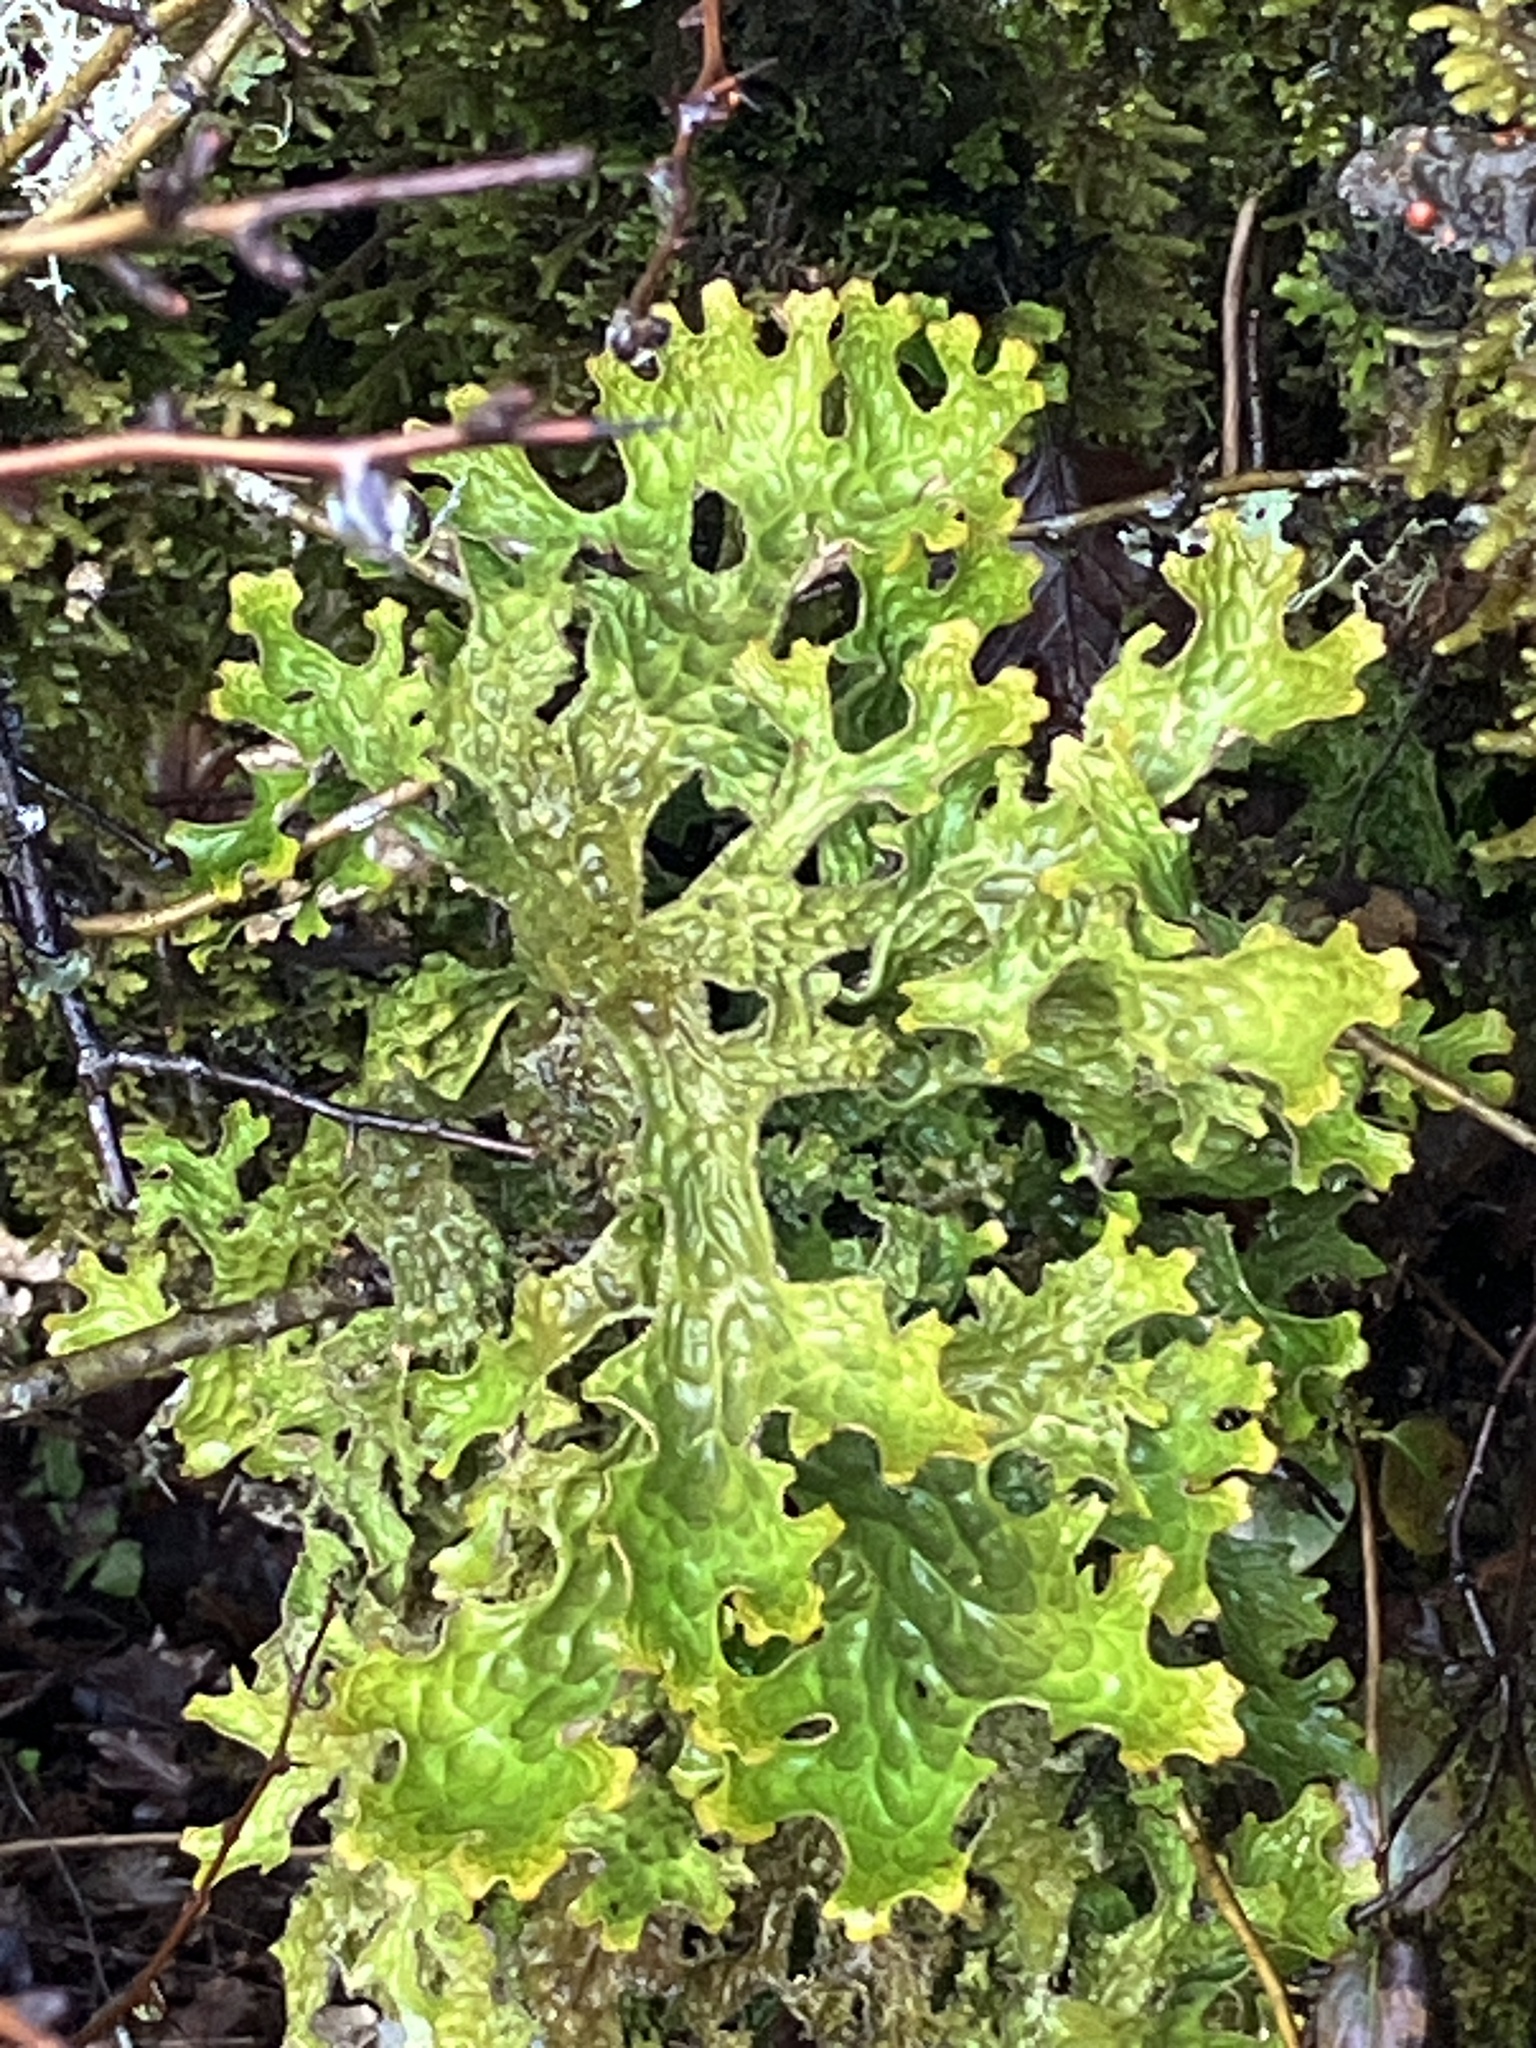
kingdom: Fungi
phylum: Ascomycota
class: Lecanoromycetes
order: Peltigerales
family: Lobariaceae
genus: Lobaria
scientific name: Lobaria pulmonaria
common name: Lungwort
